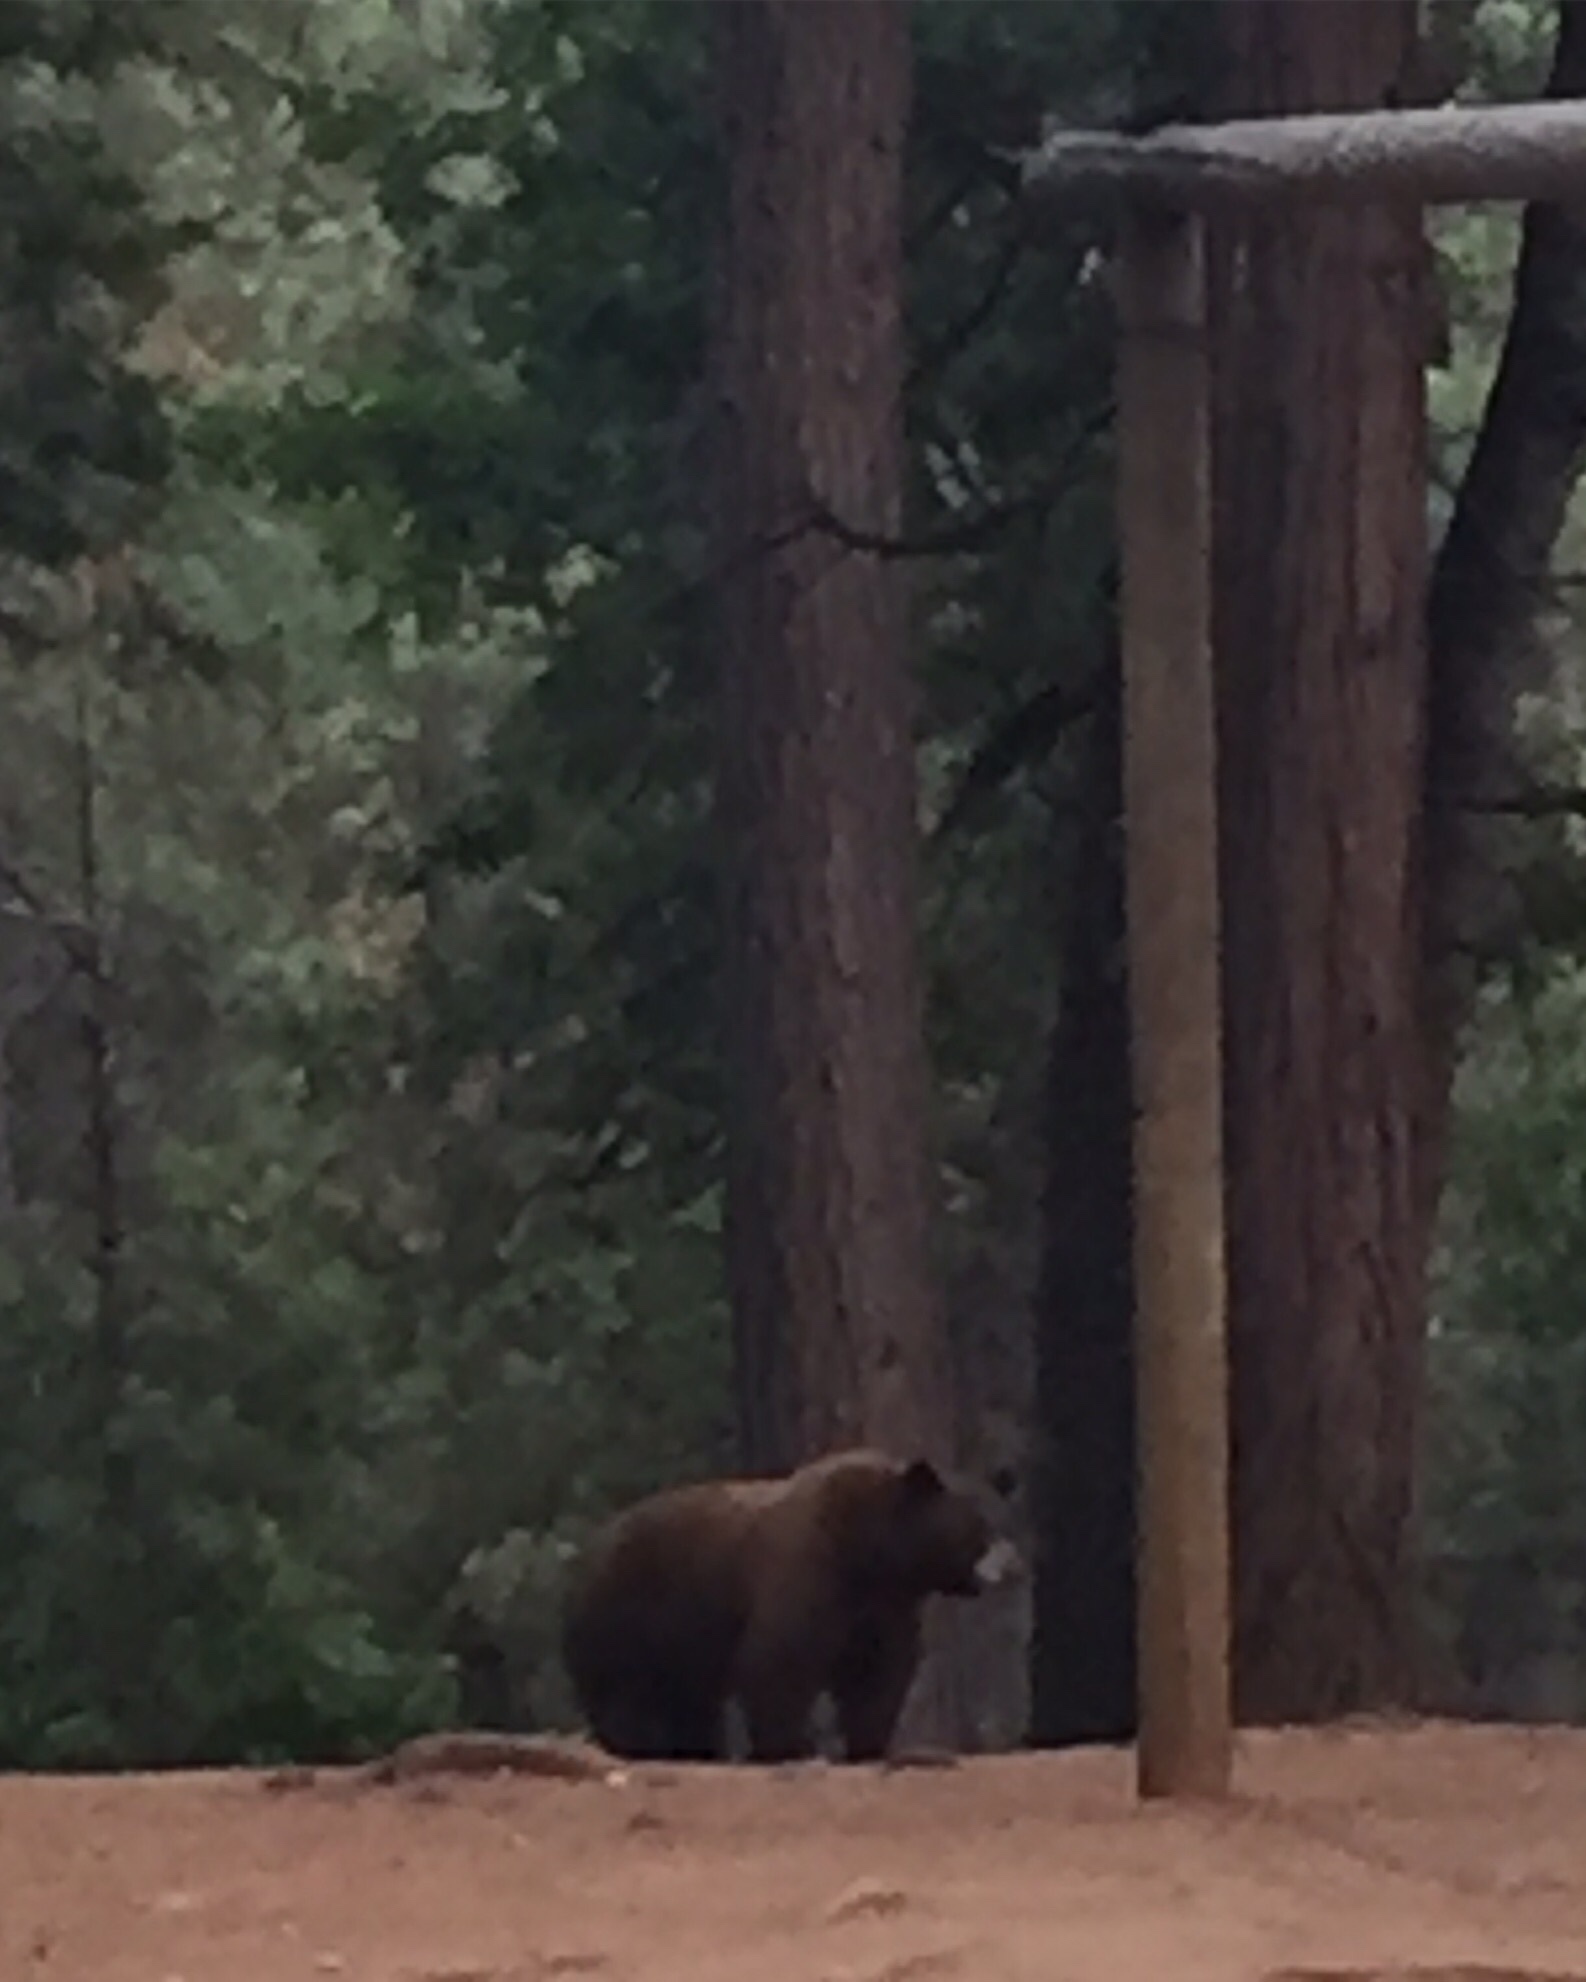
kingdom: Animalia
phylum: Chordata
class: Mammalia
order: Carnivora
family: Ursidae
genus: Ursus
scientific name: Ursus americanus
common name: American black bear
